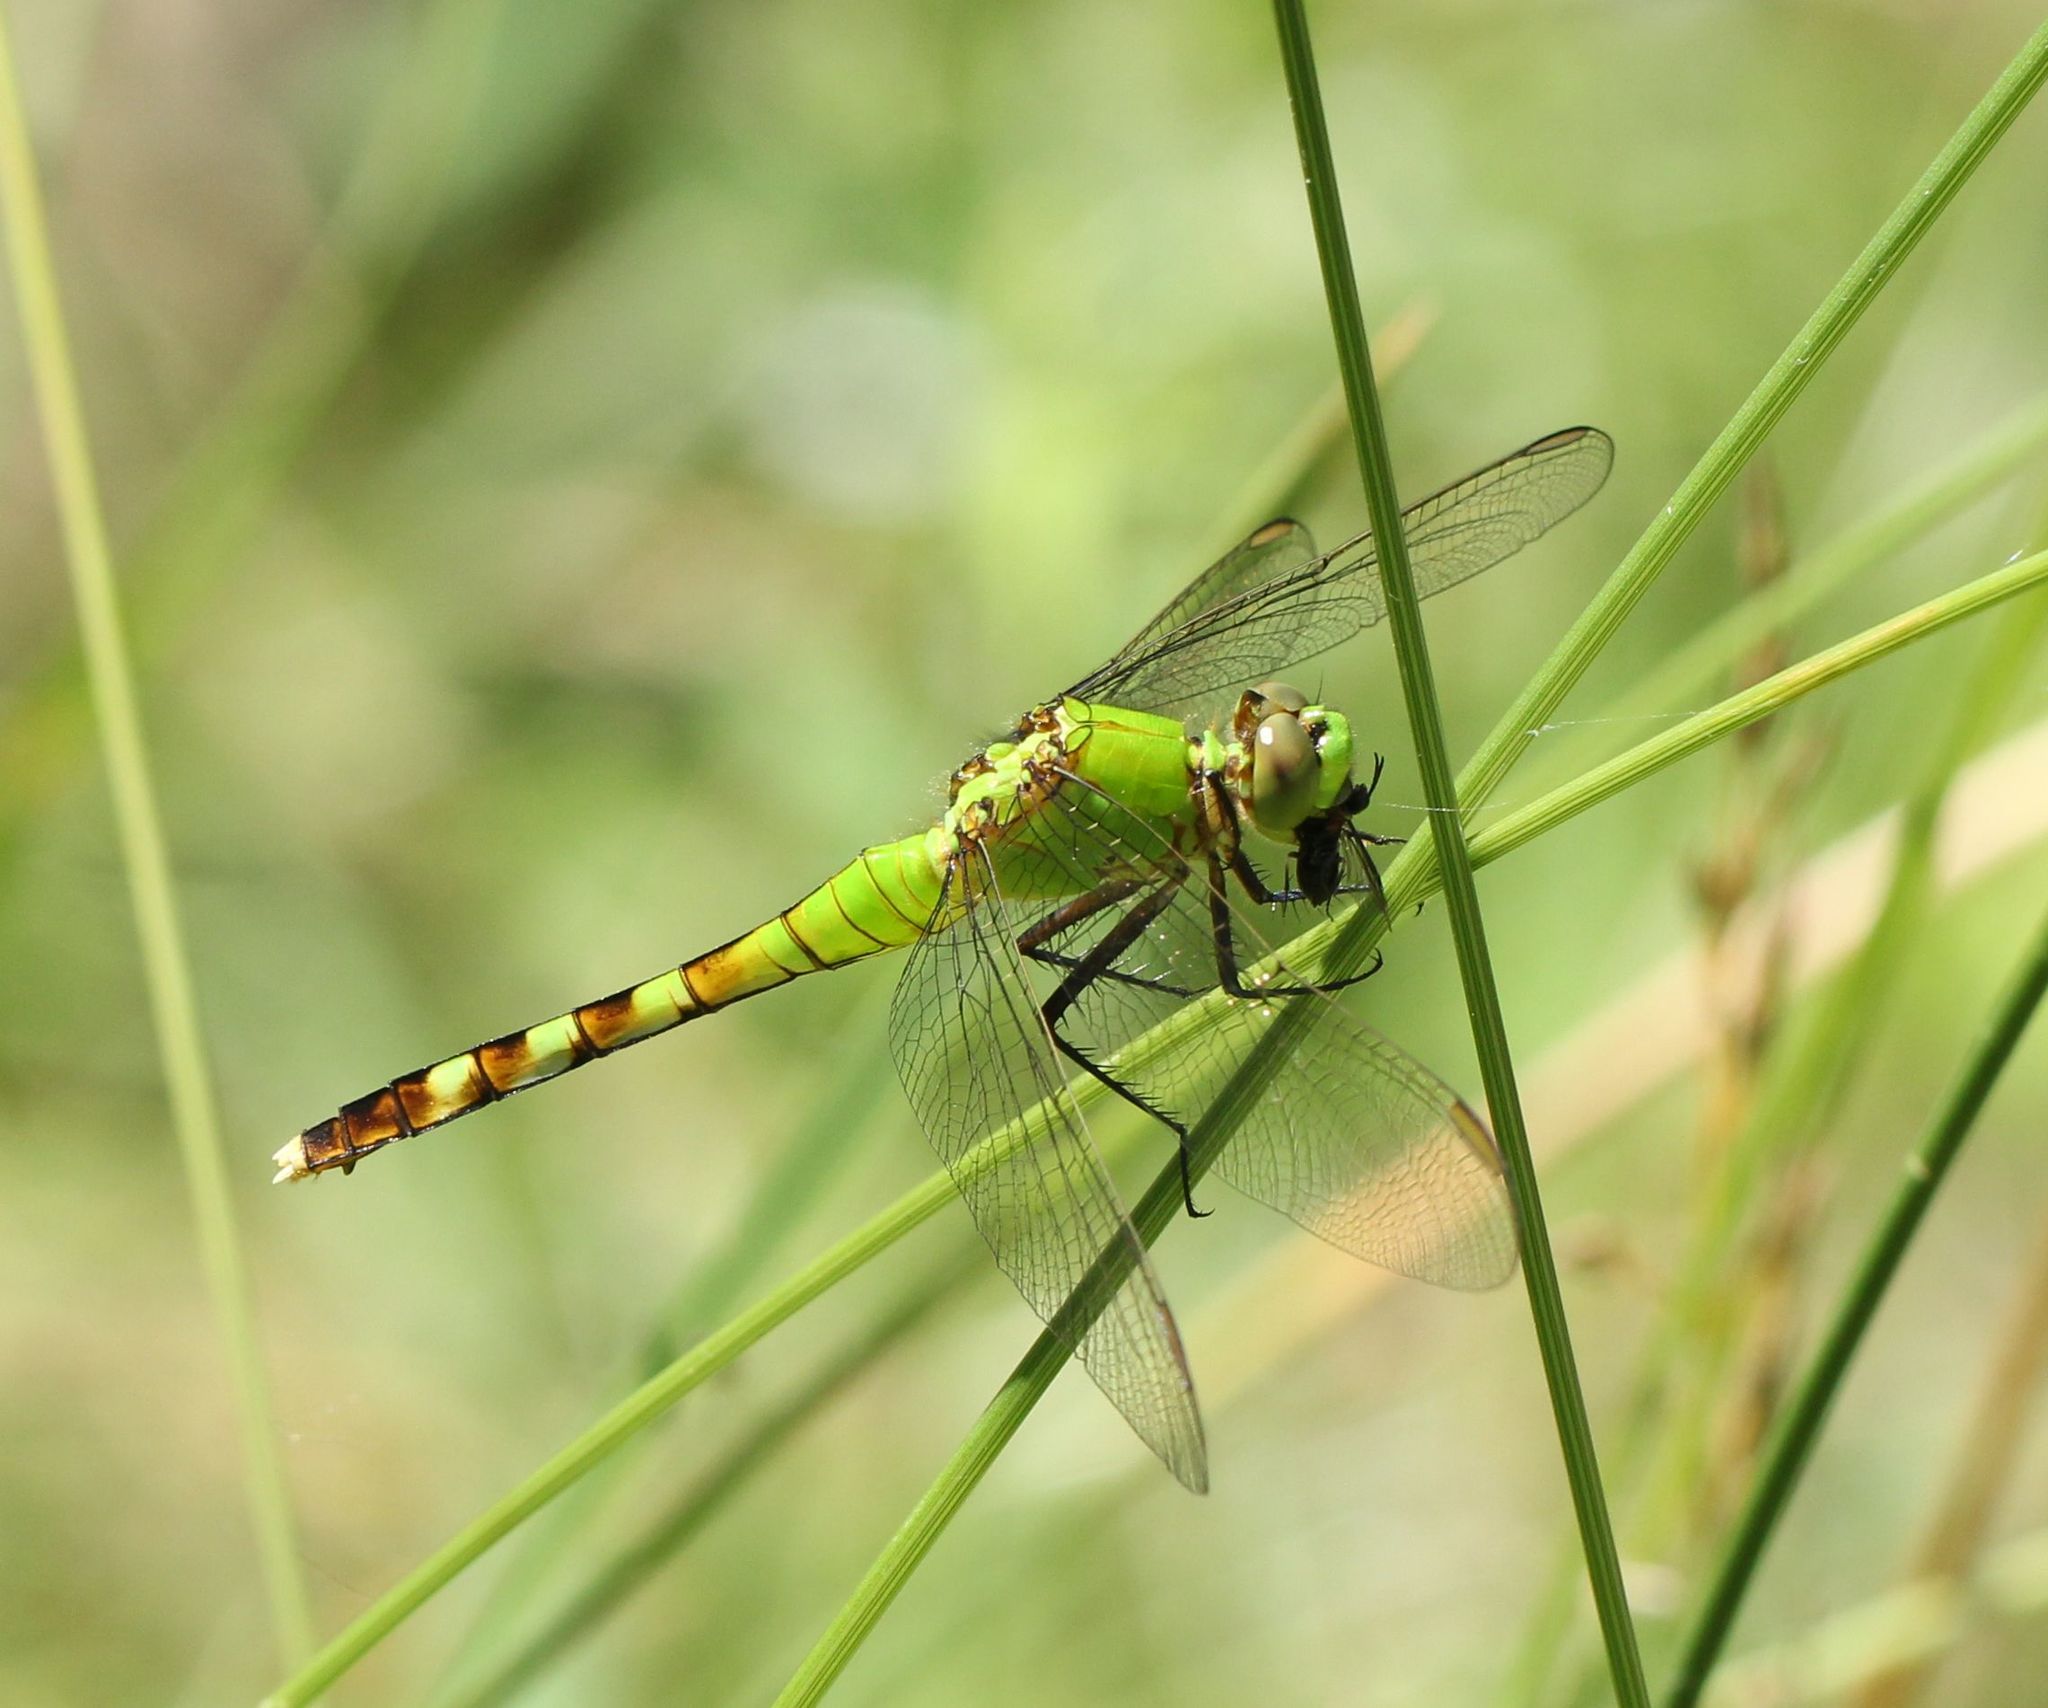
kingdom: Animalia
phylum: Arthropoda
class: Insecta
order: Odonata
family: Libellulidae
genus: Erythemis
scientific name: Erythemis simplicicollis
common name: Eastern pondhawk
